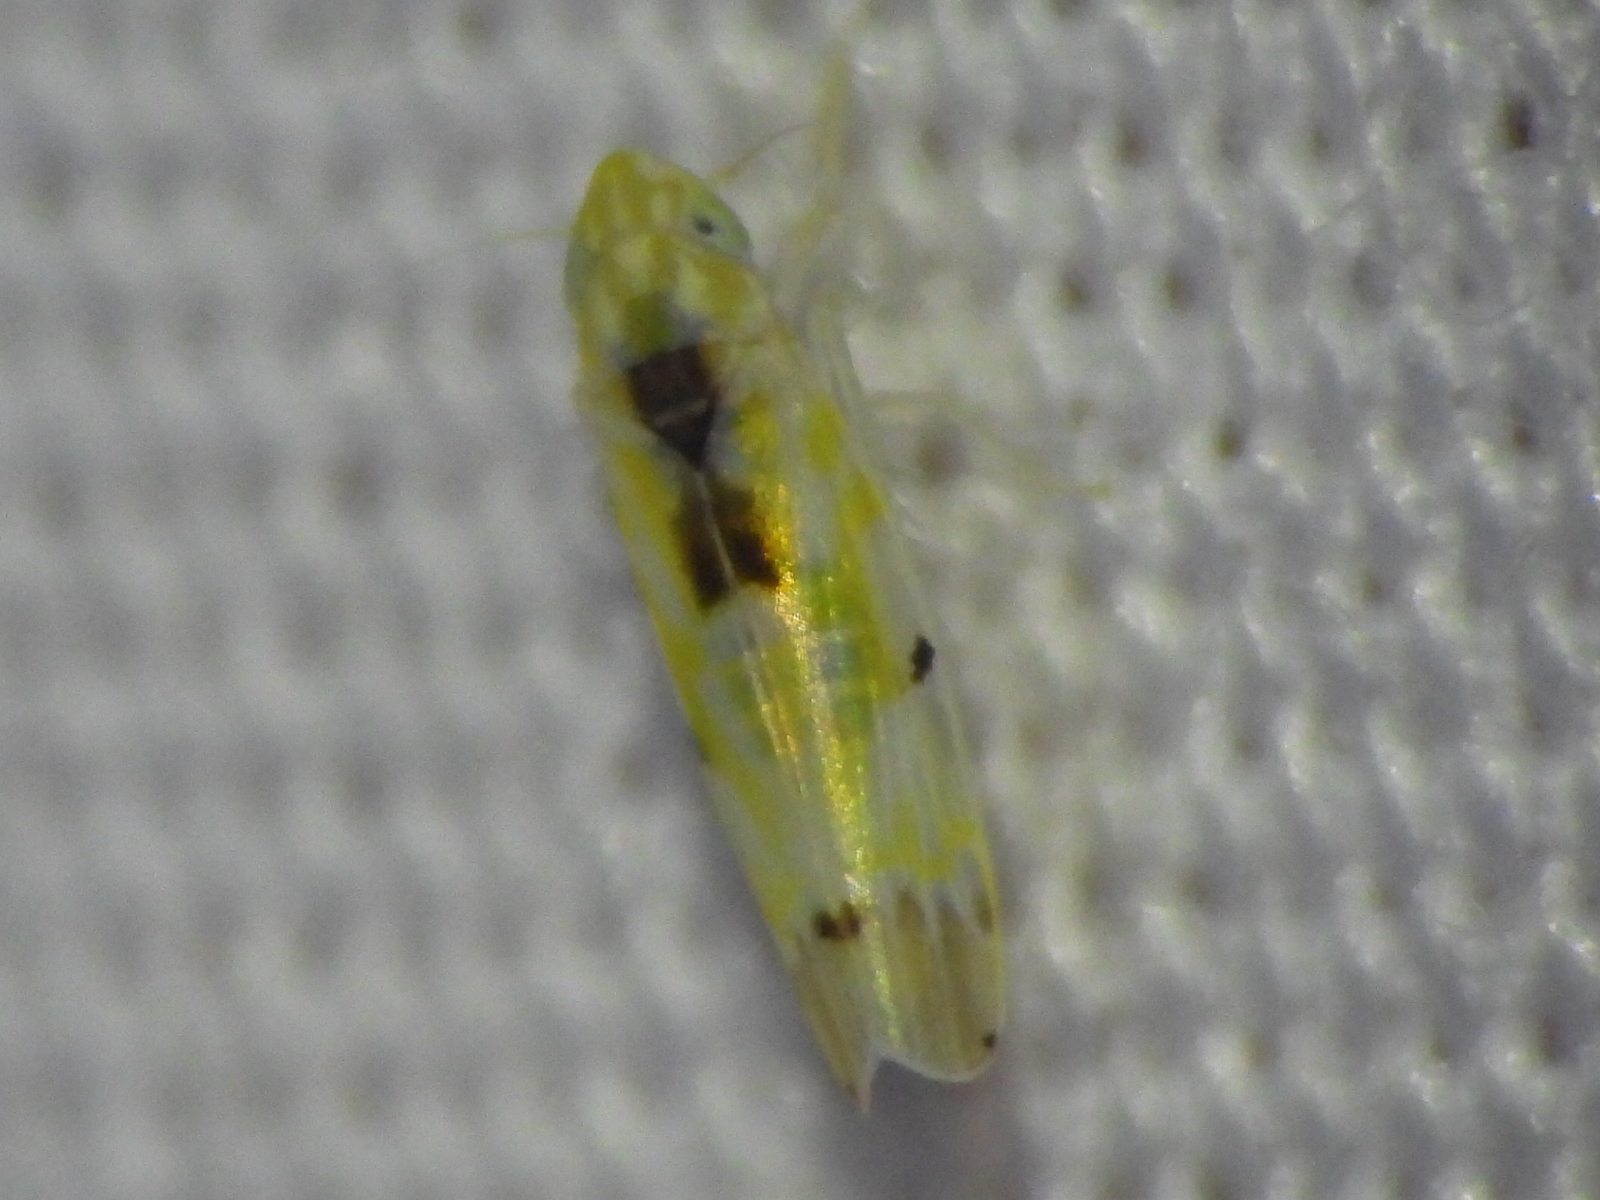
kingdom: Animalia
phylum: Arthropoda
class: Insecta
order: Hemiptera
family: Cicadellidae
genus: Erythroneura
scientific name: Erythroneura octonotata
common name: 8-spotted leafhopper
